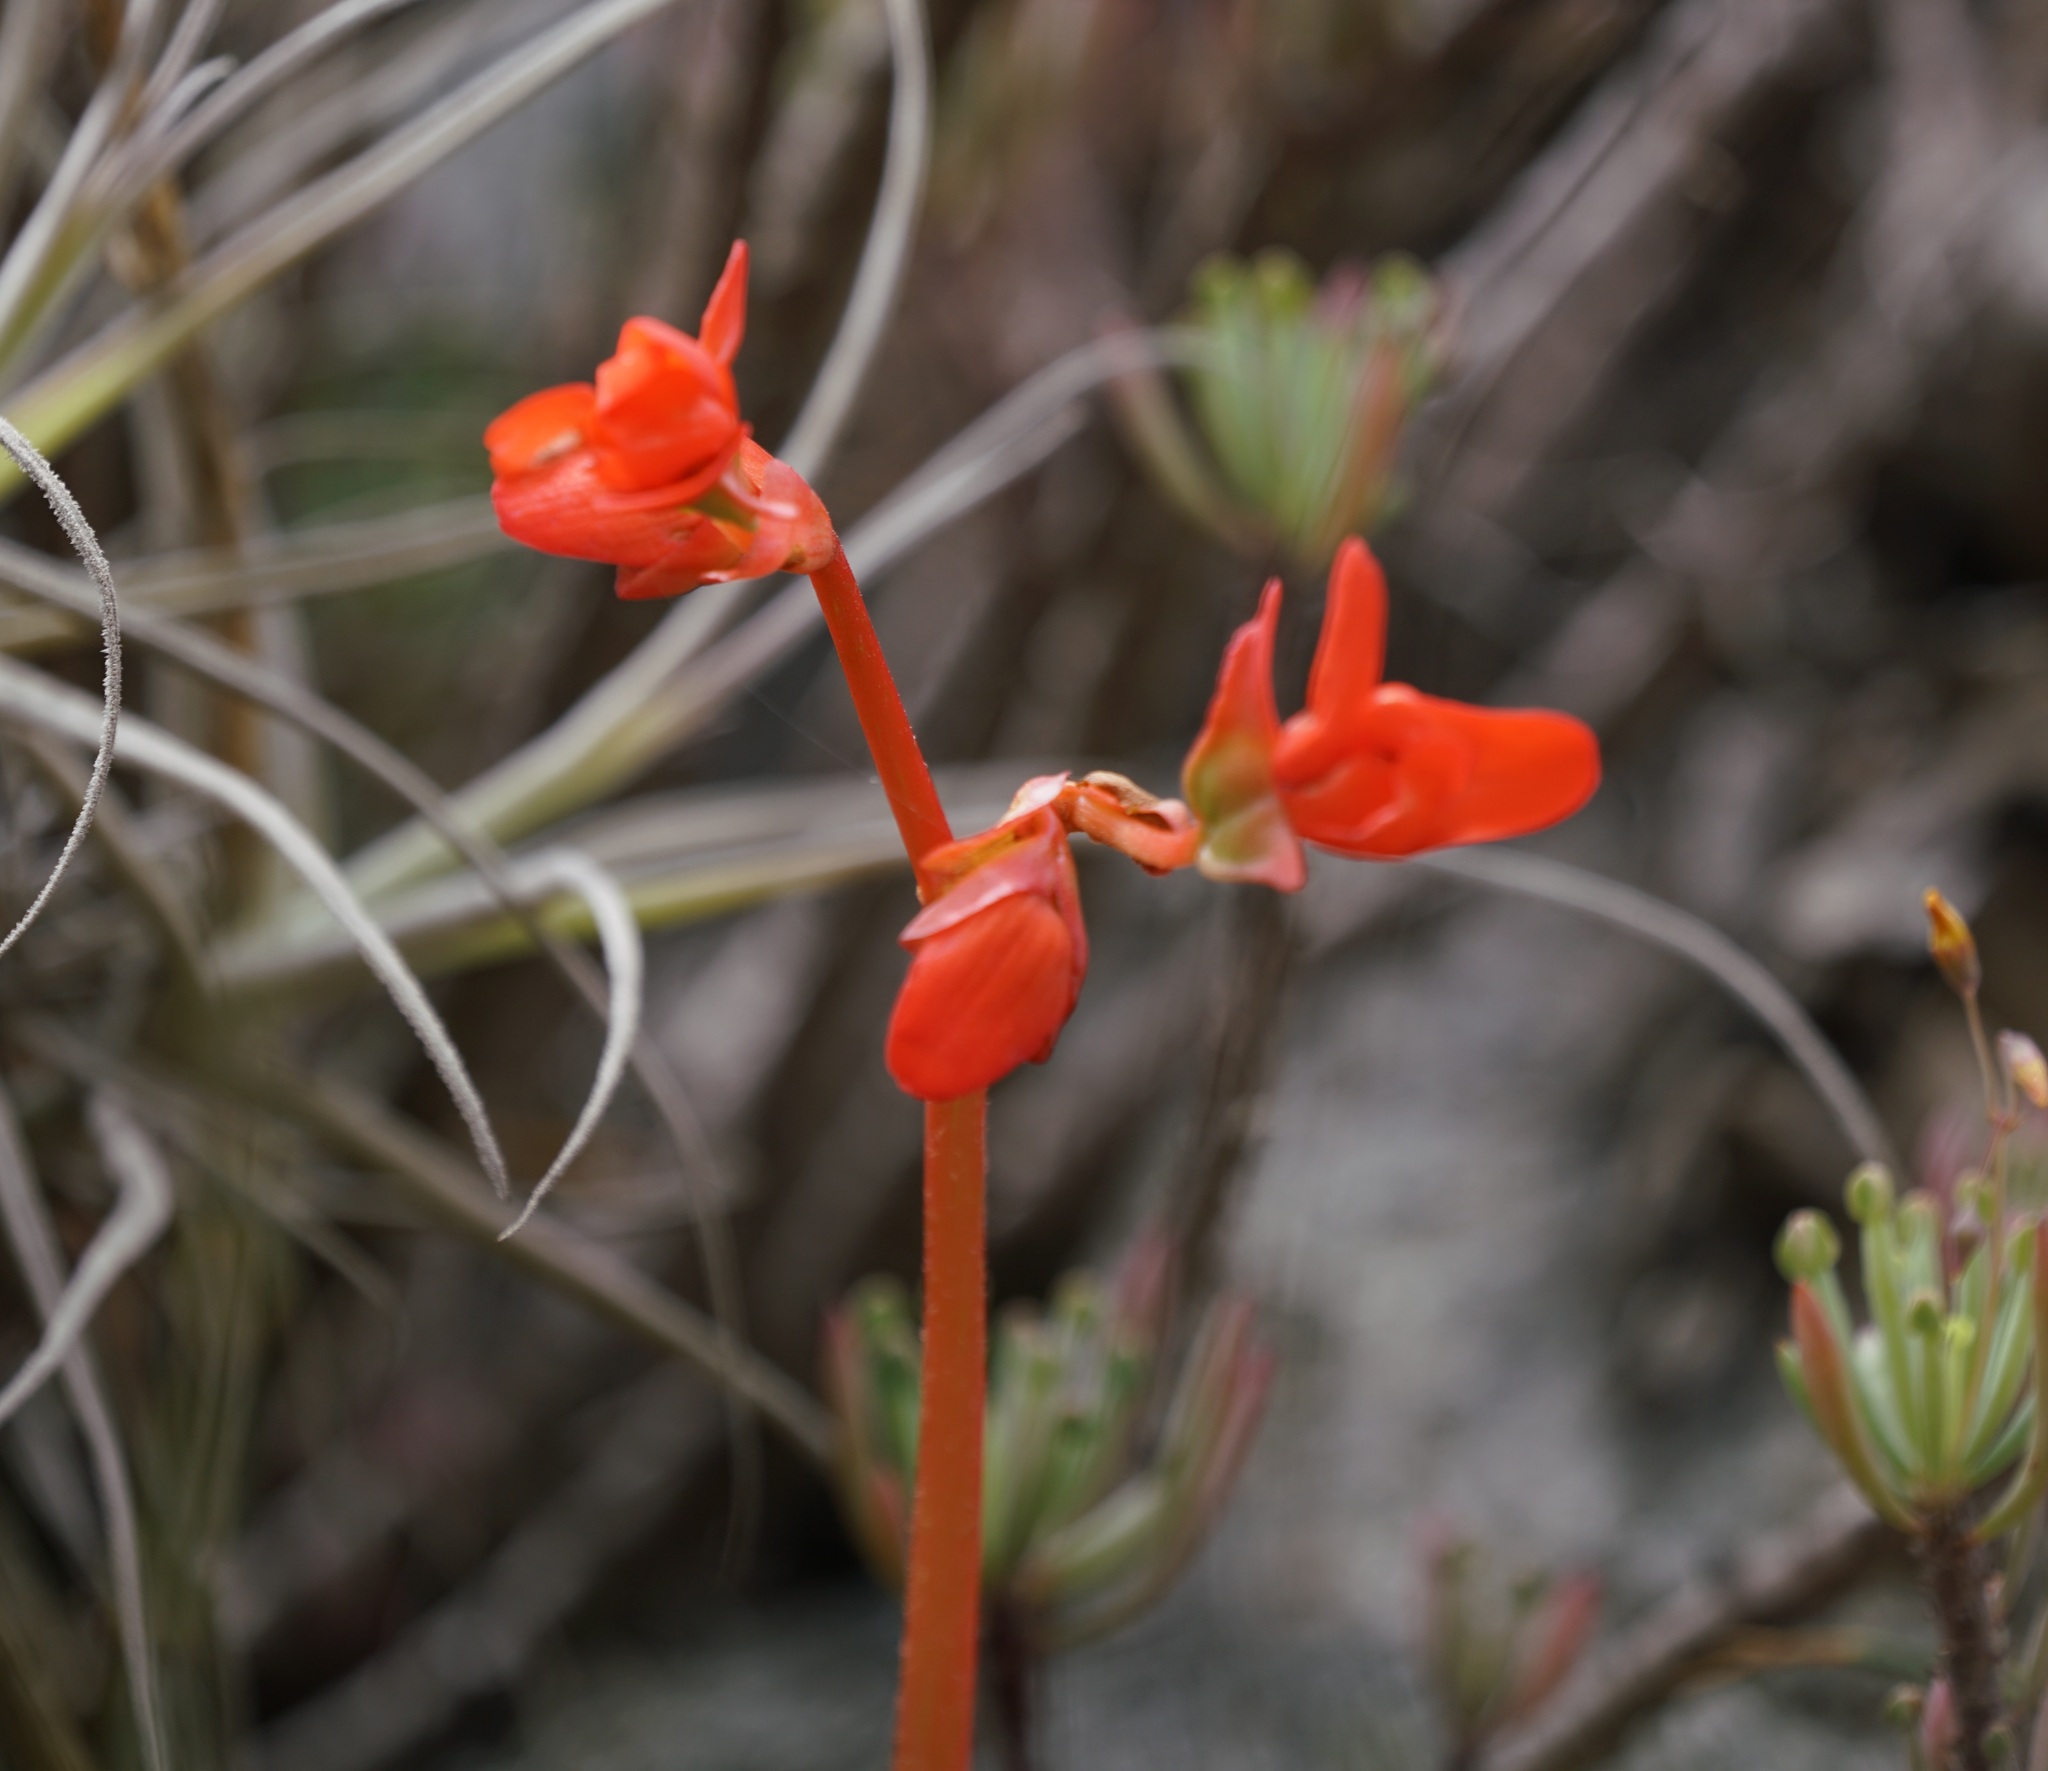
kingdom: Plantae
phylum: Tracheophyta
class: Magnoliopsida
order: Cucurbitales
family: Begoniaceae
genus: Begonia
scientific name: Begonia veitchii
